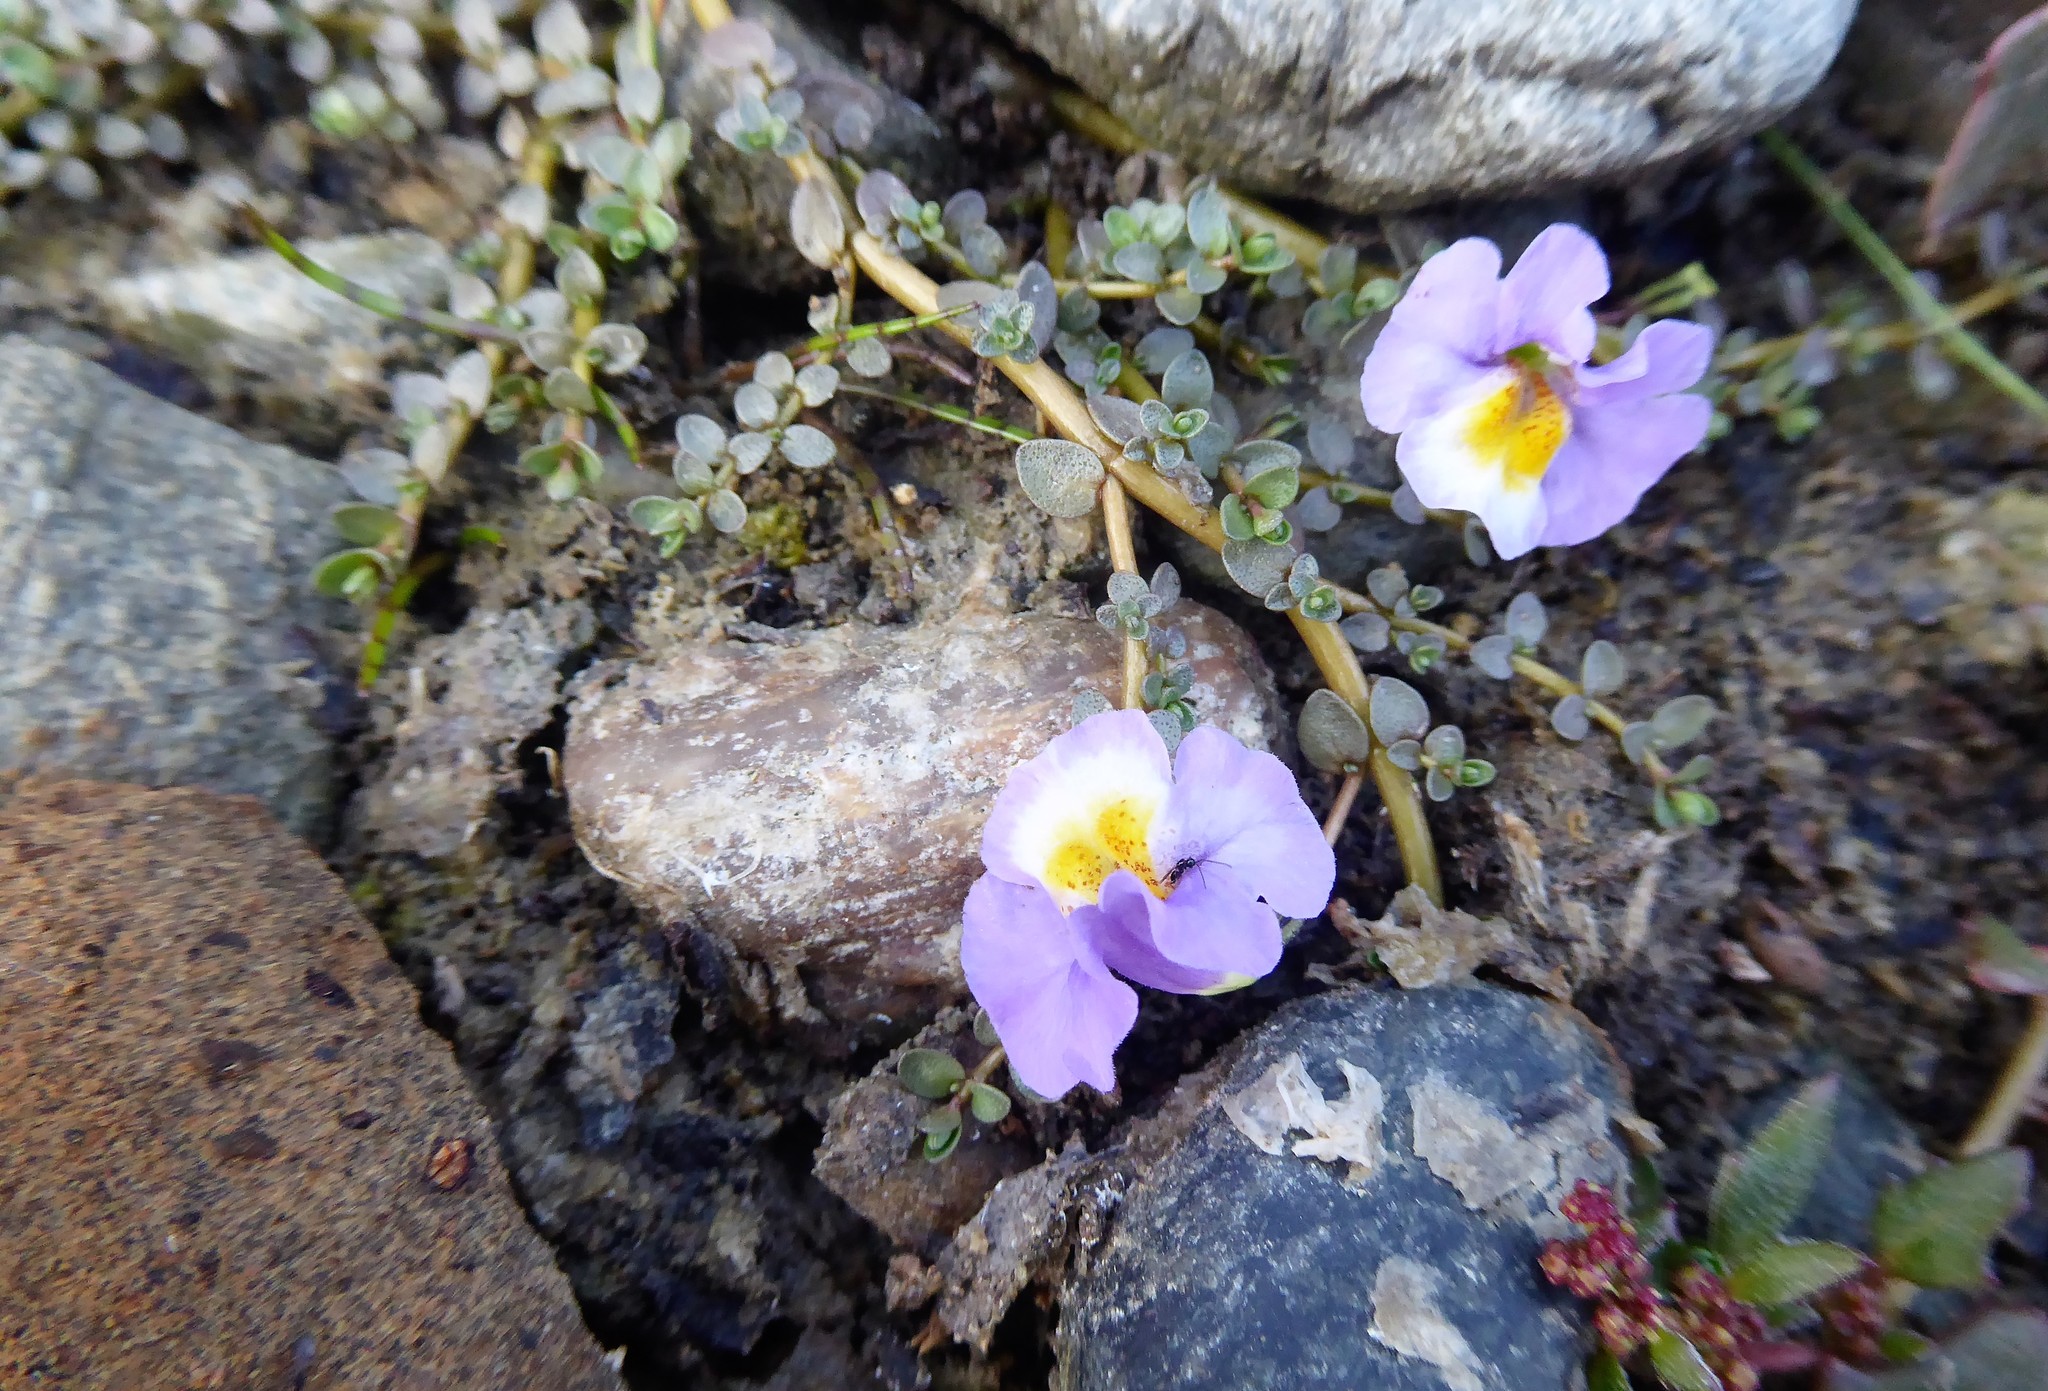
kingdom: Plantae
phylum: Tracheophyta
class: Magnoliopsida
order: Lamiales
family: Phrymaceae
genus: Thyridia
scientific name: Thyridia repens
